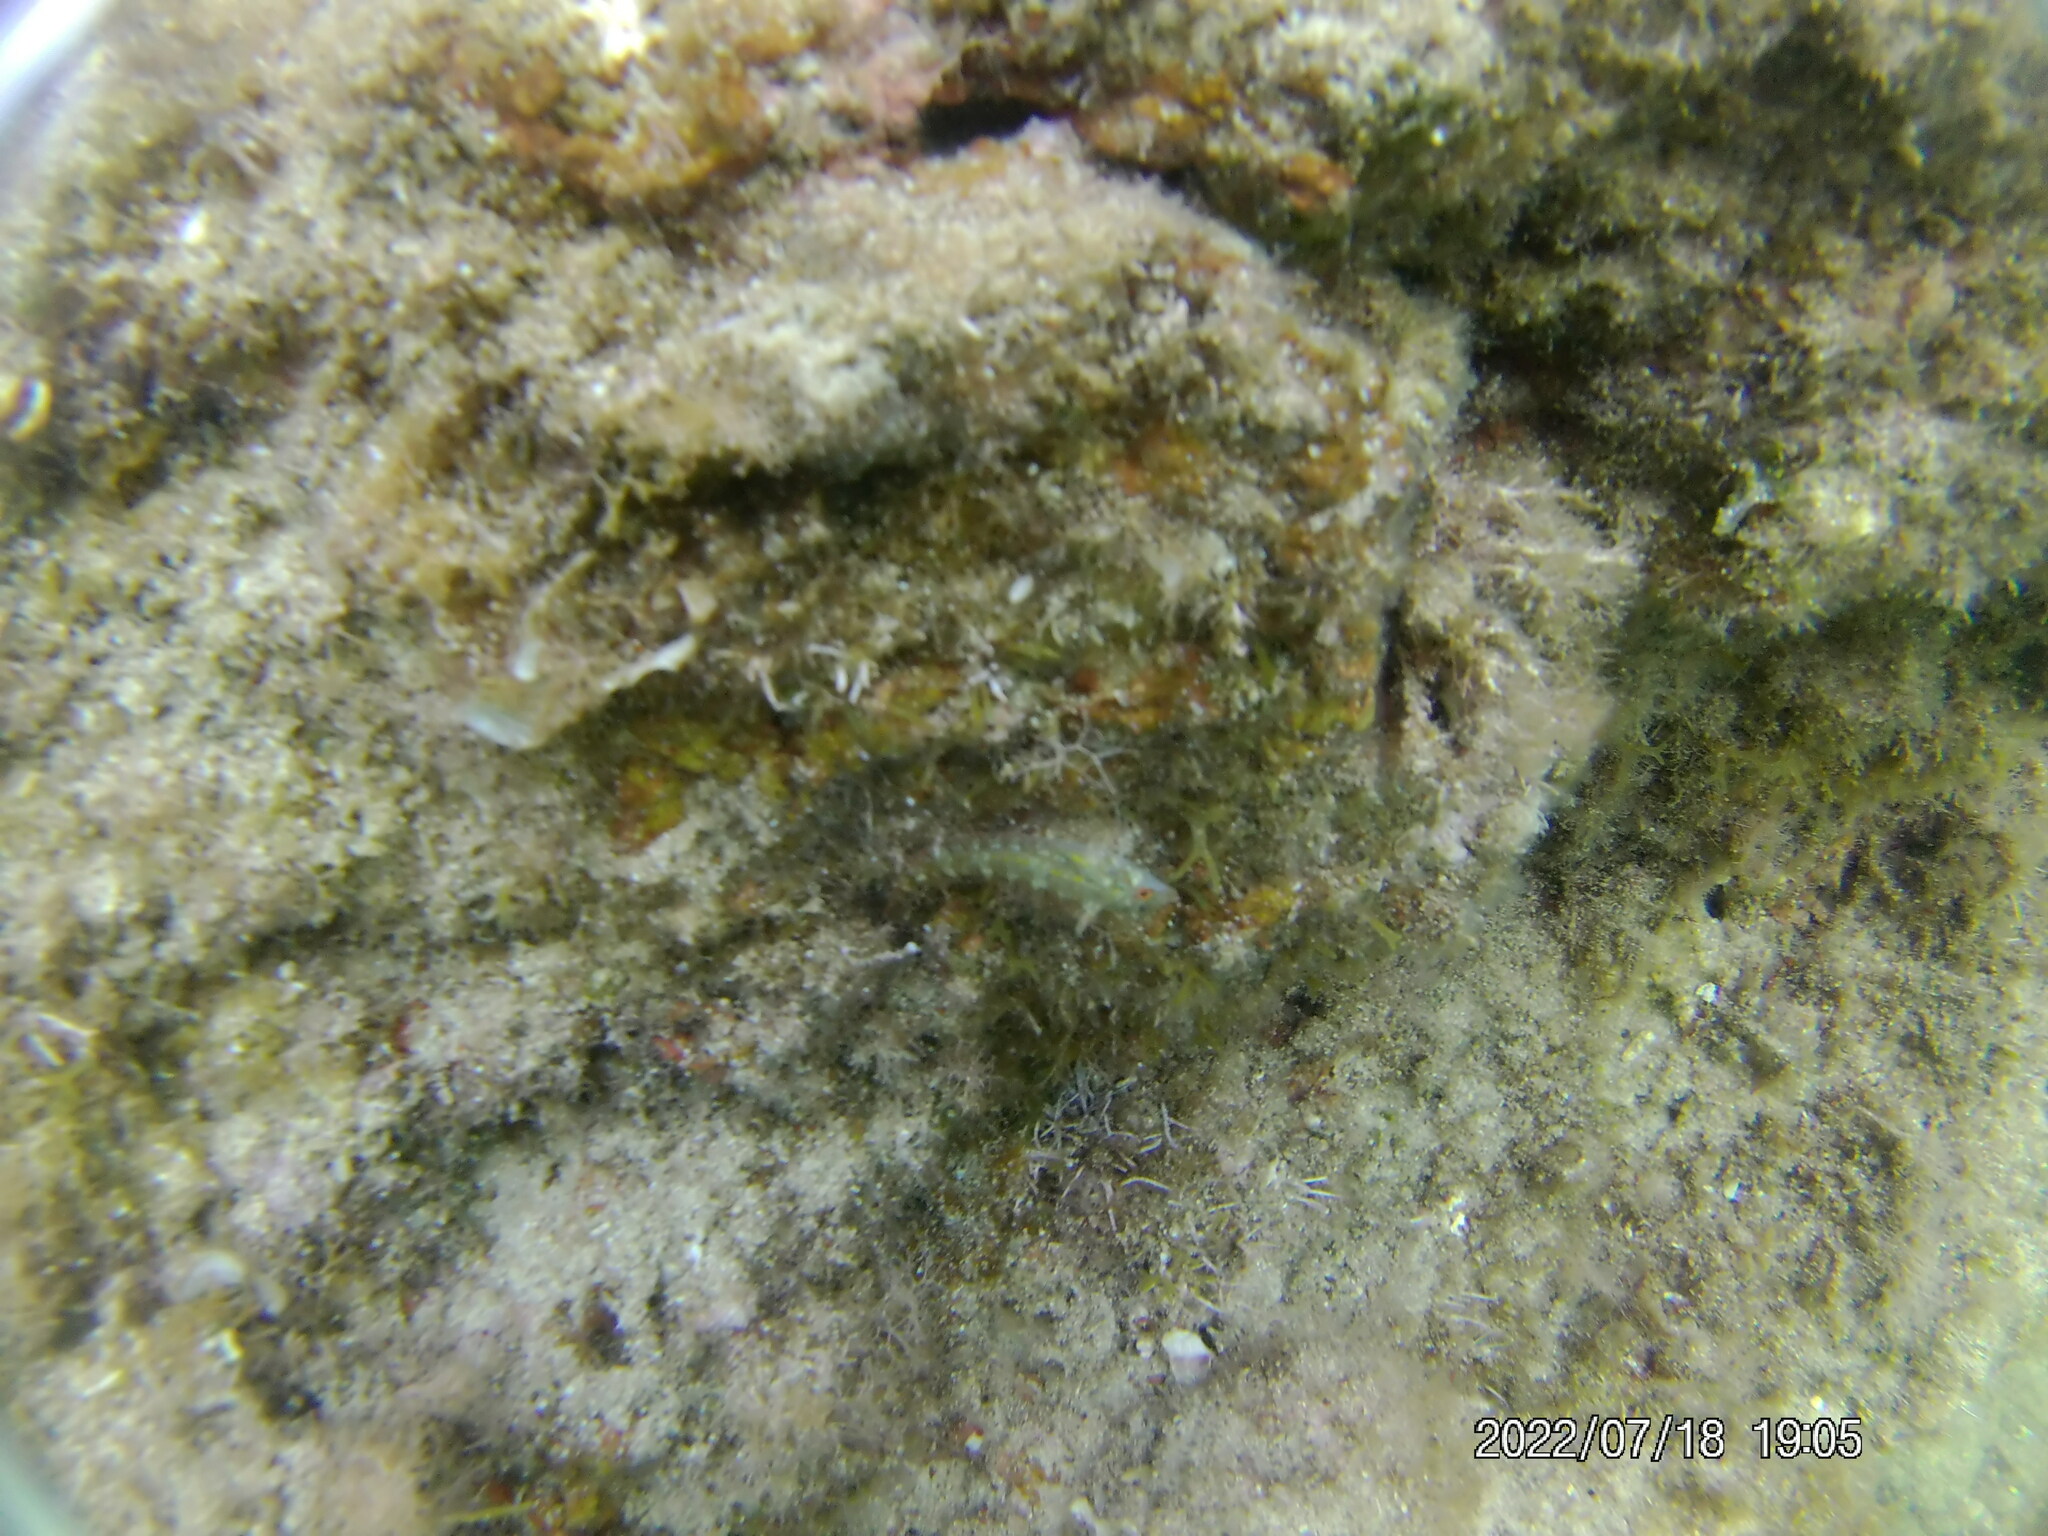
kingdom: Animalia
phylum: Chordata
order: Perciformes
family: Tripterygiidae
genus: Tripterygion
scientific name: Tripterygion tripteronotum
